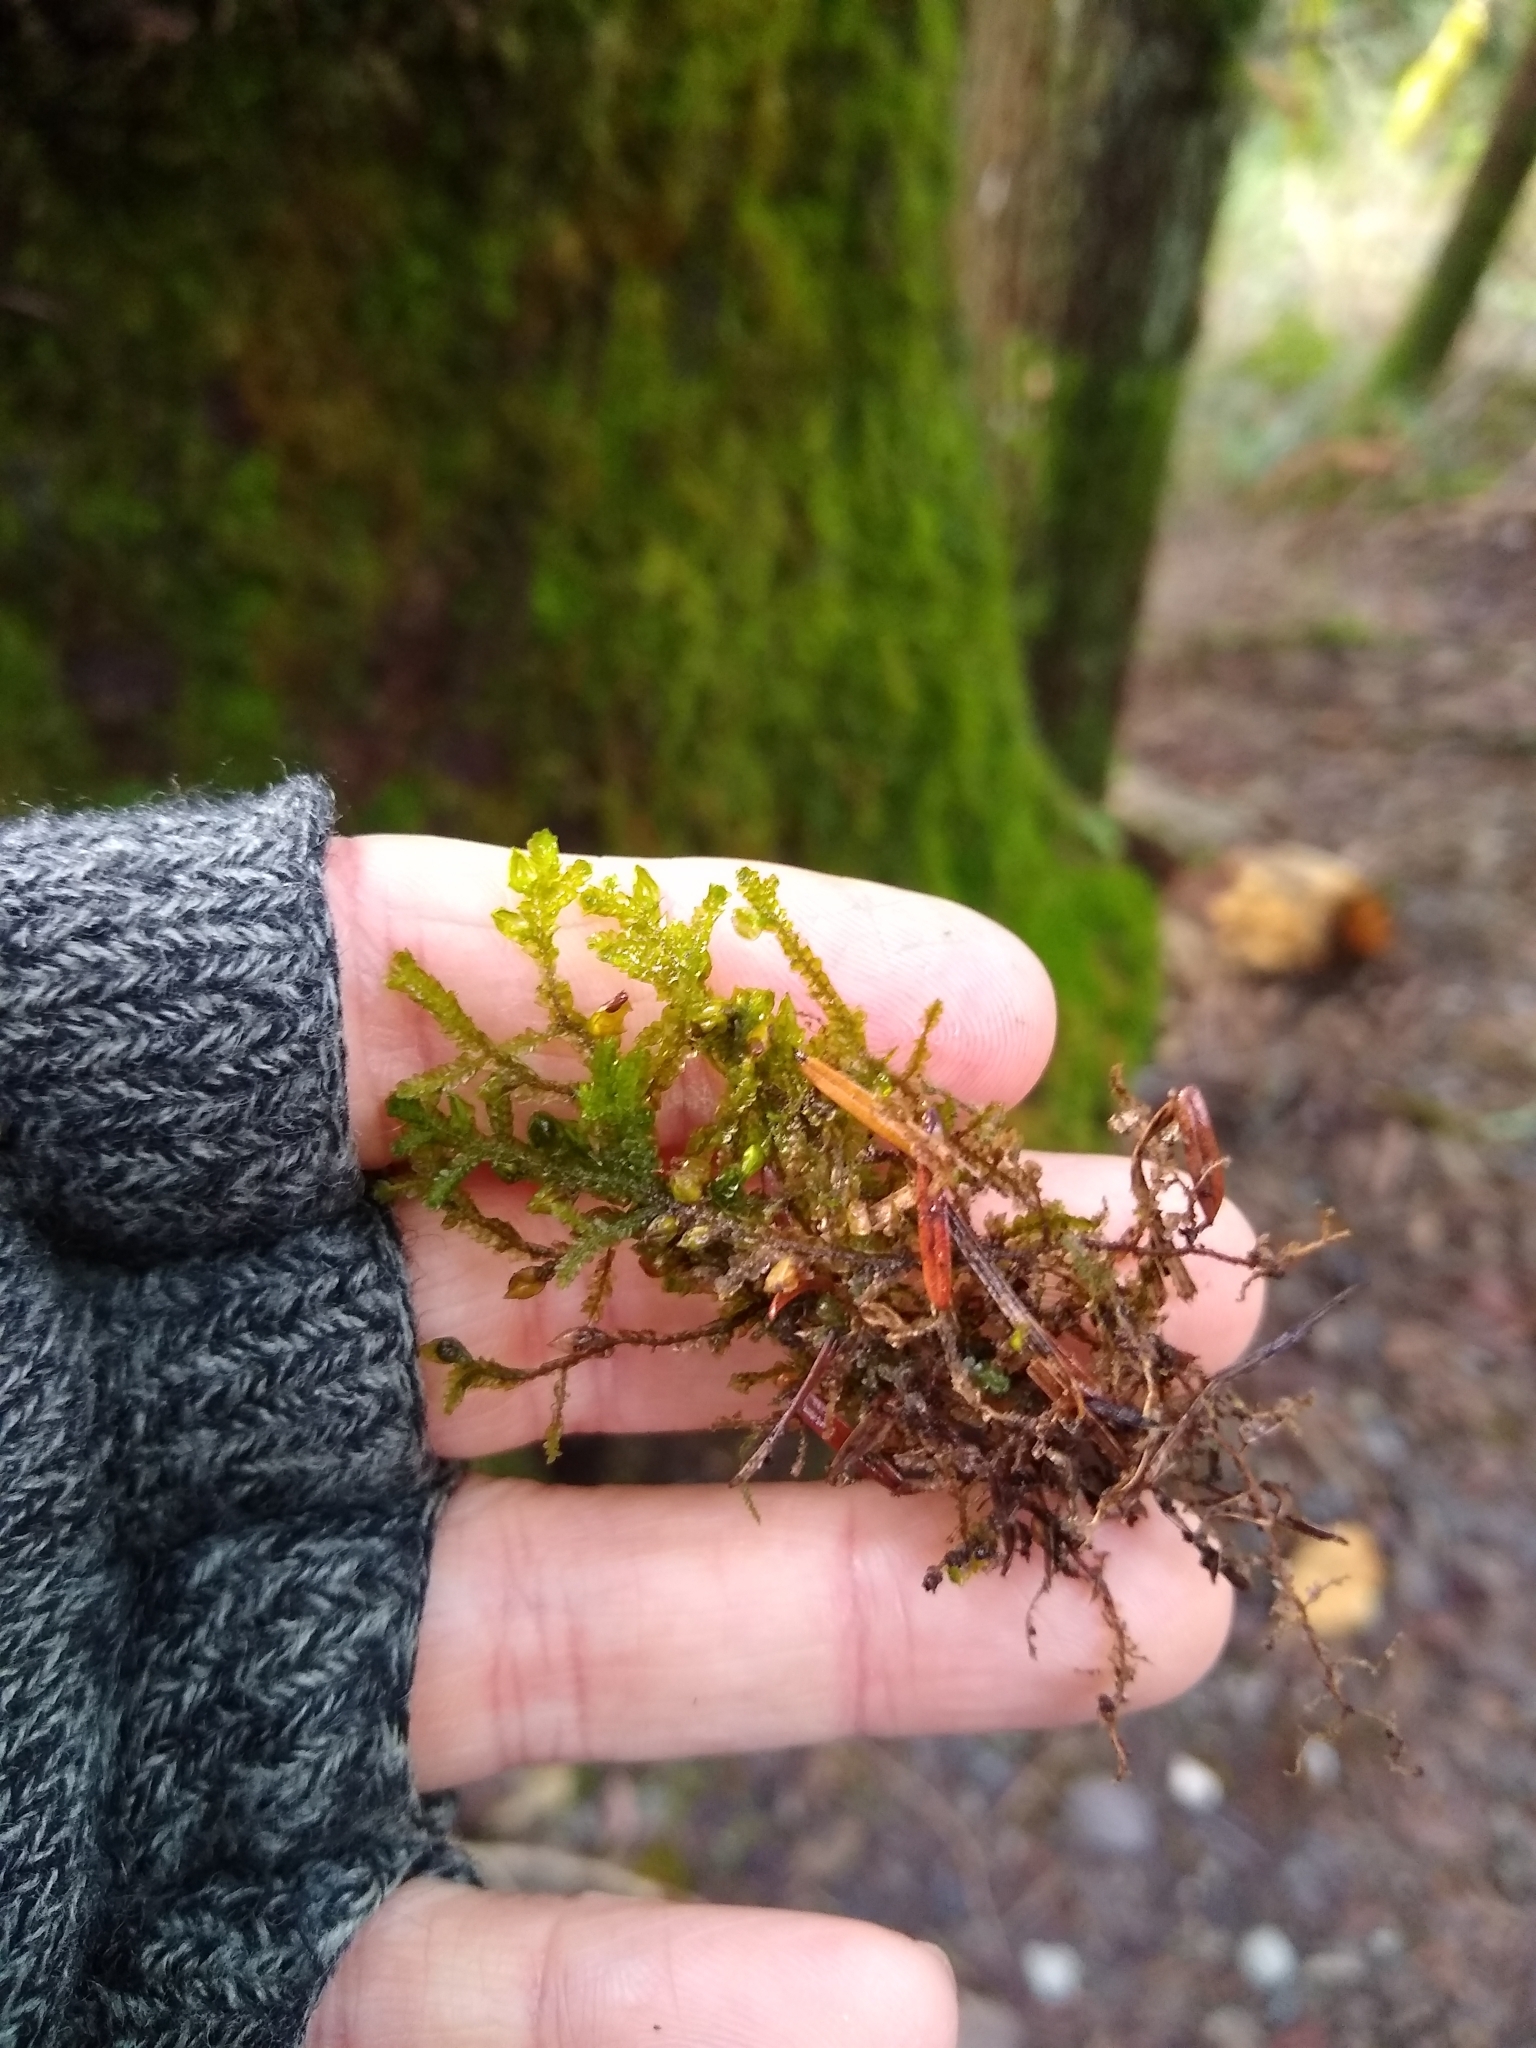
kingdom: Plantae
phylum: Bryophyta
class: Bryopsida
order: Hypnales
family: Neckeraceae
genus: Neckera
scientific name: Neckera douglasii
